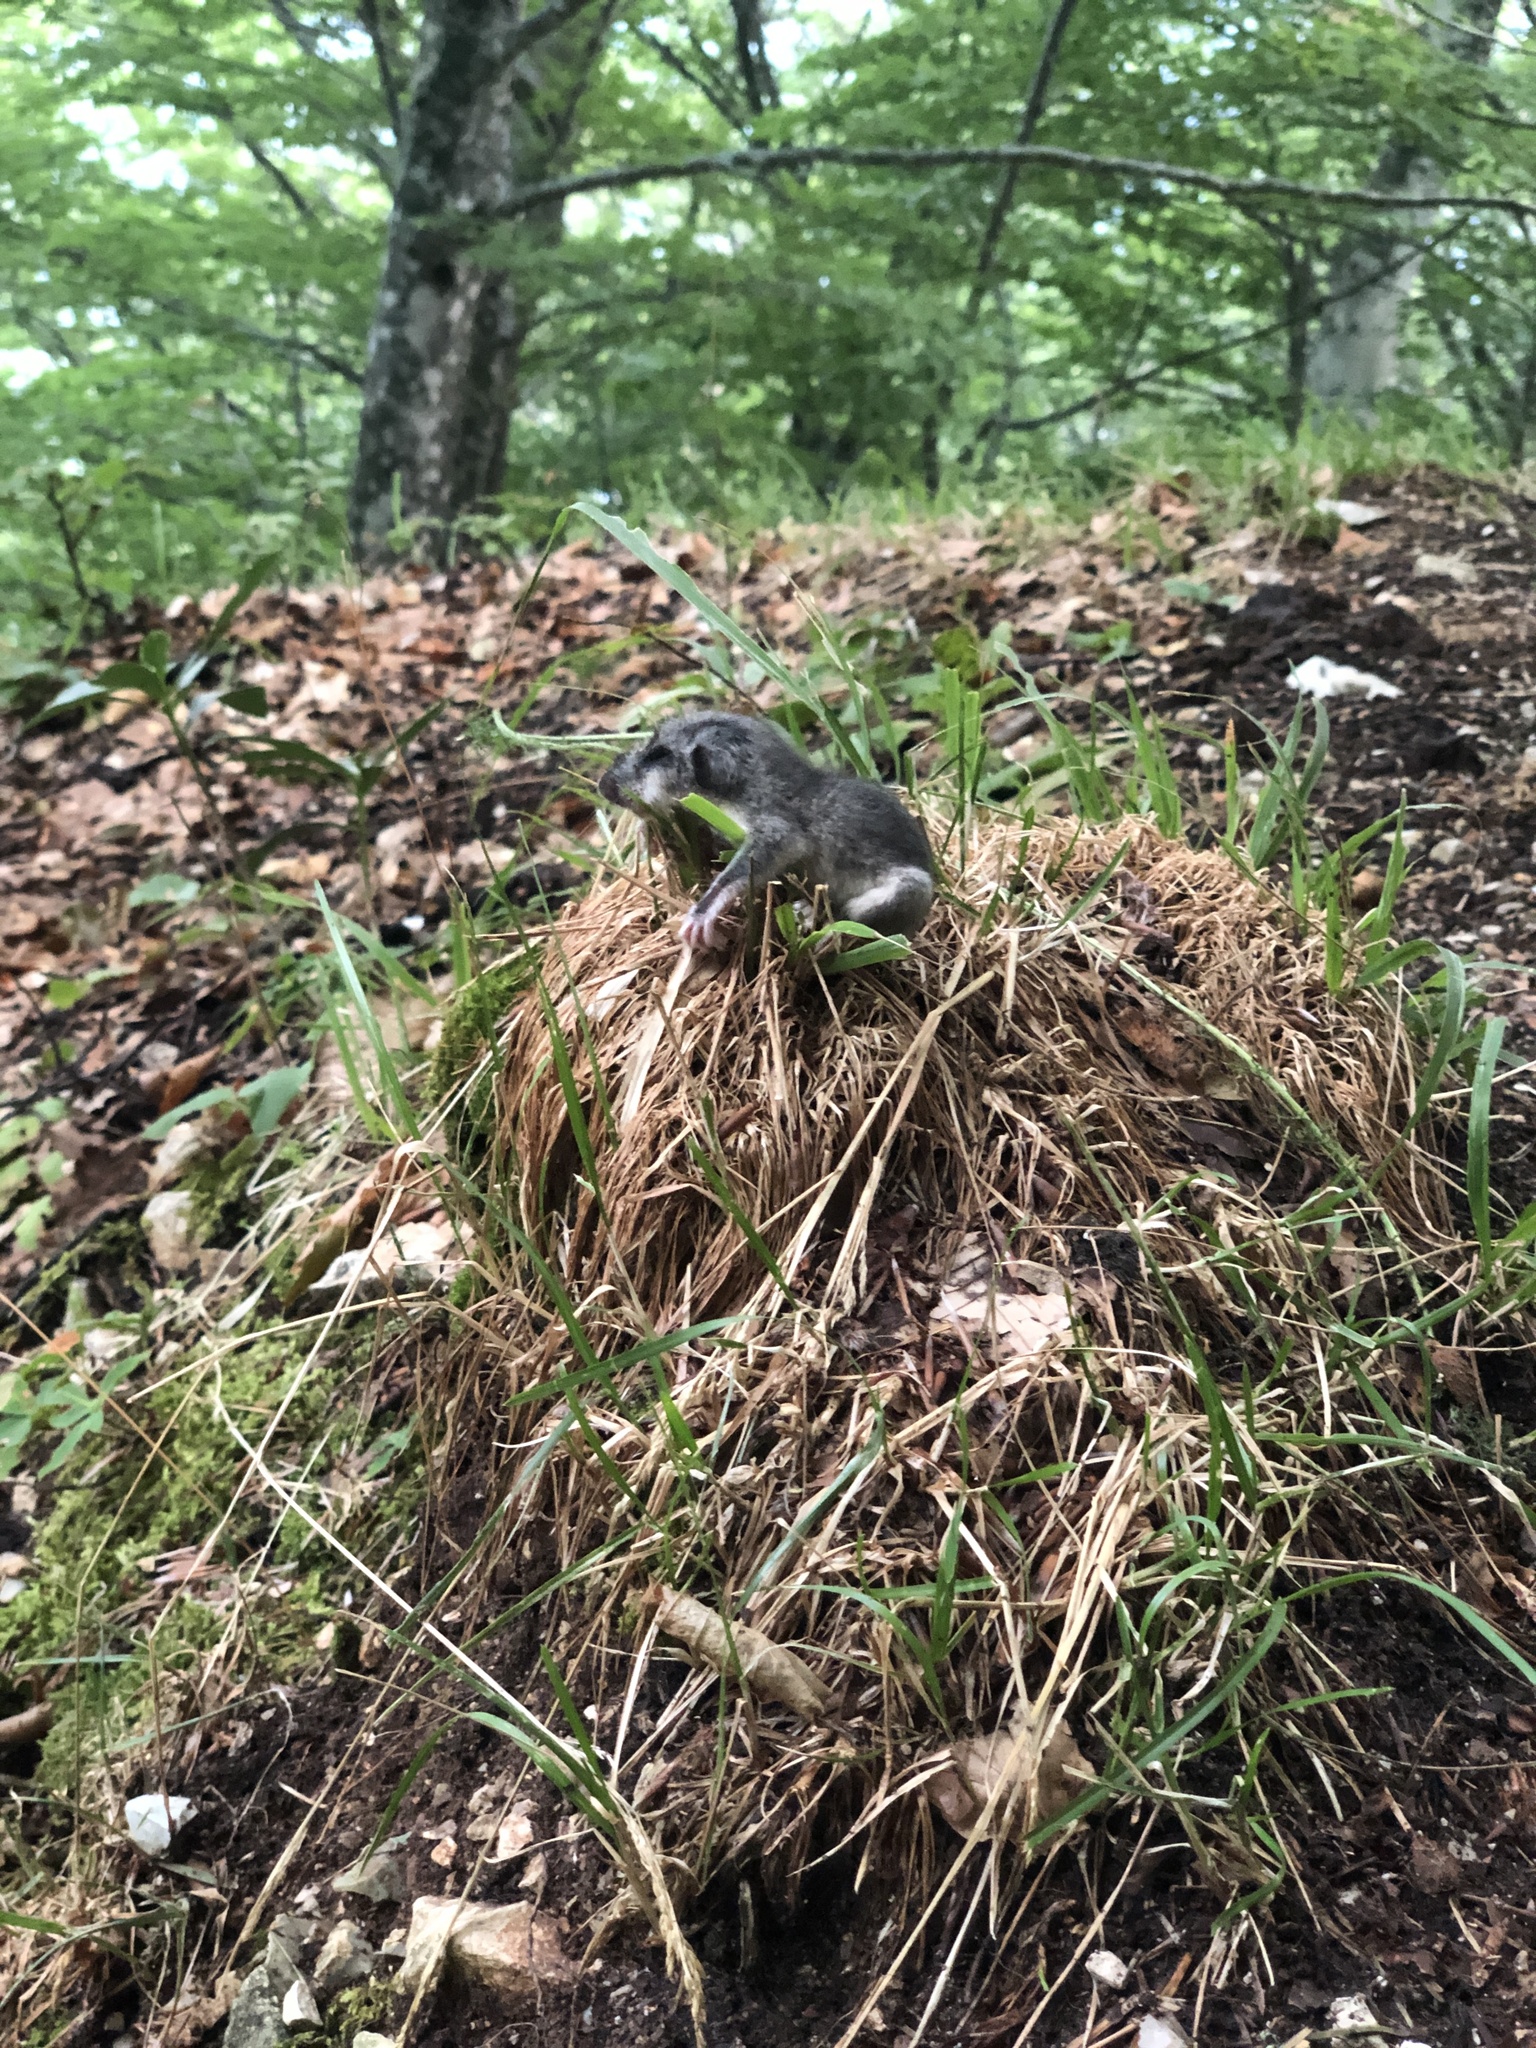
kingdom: Animalia
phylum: Chordata
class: Mammalia
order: Rodentia
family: Gliridae
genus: Glis
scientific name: Glis glis
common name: Fat dormouse
